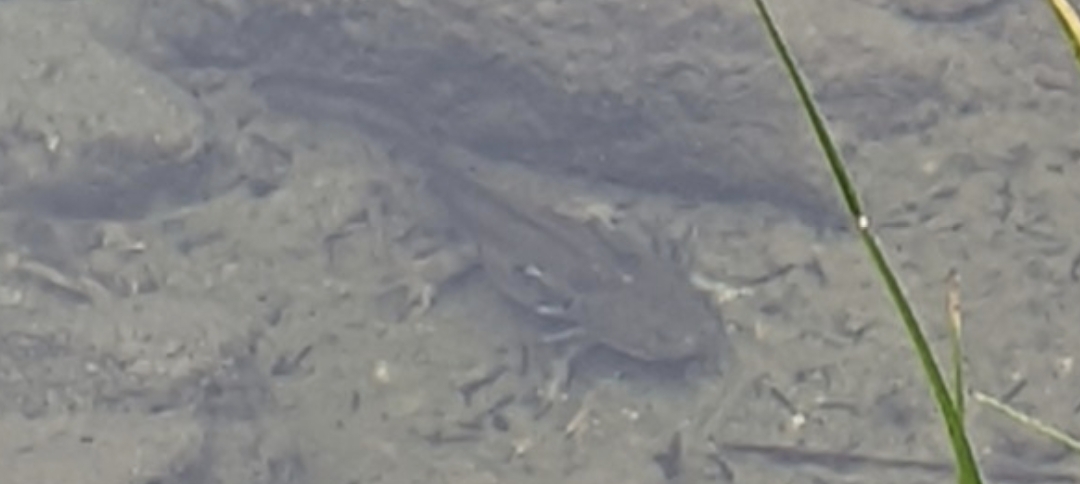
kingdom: Animalia
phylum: Chordata
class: Amphibia
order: Caudata
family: Ambystomatidae
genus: Ambystoma
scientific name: Ambystoma mavortium
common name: Western tiger salamander
